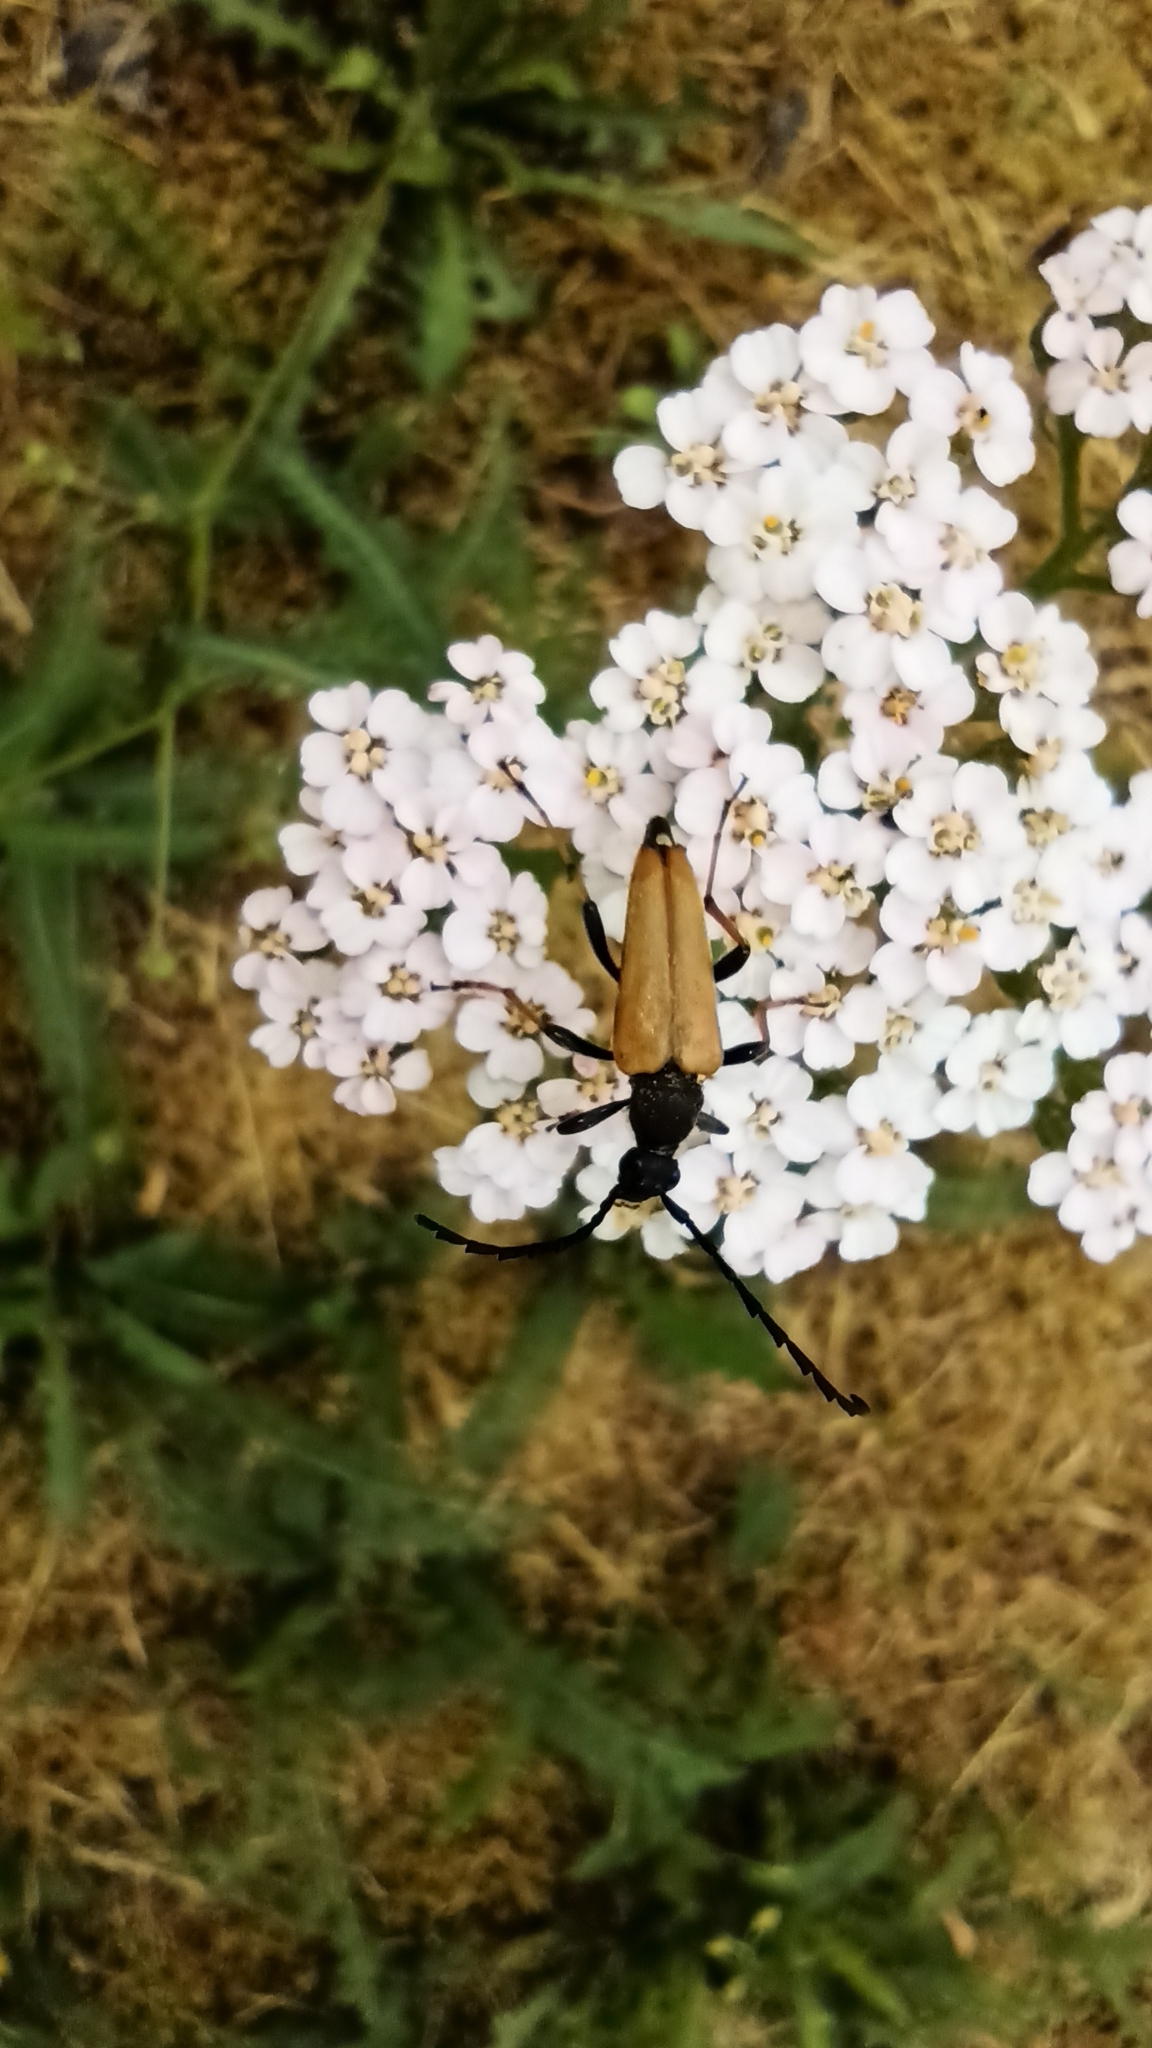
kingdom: Animalia
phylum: Arthropoda
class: Insecta
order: Coleoptera
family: Cerambycidae
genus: Stictoleptura
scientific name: Stictoleptura rubra
